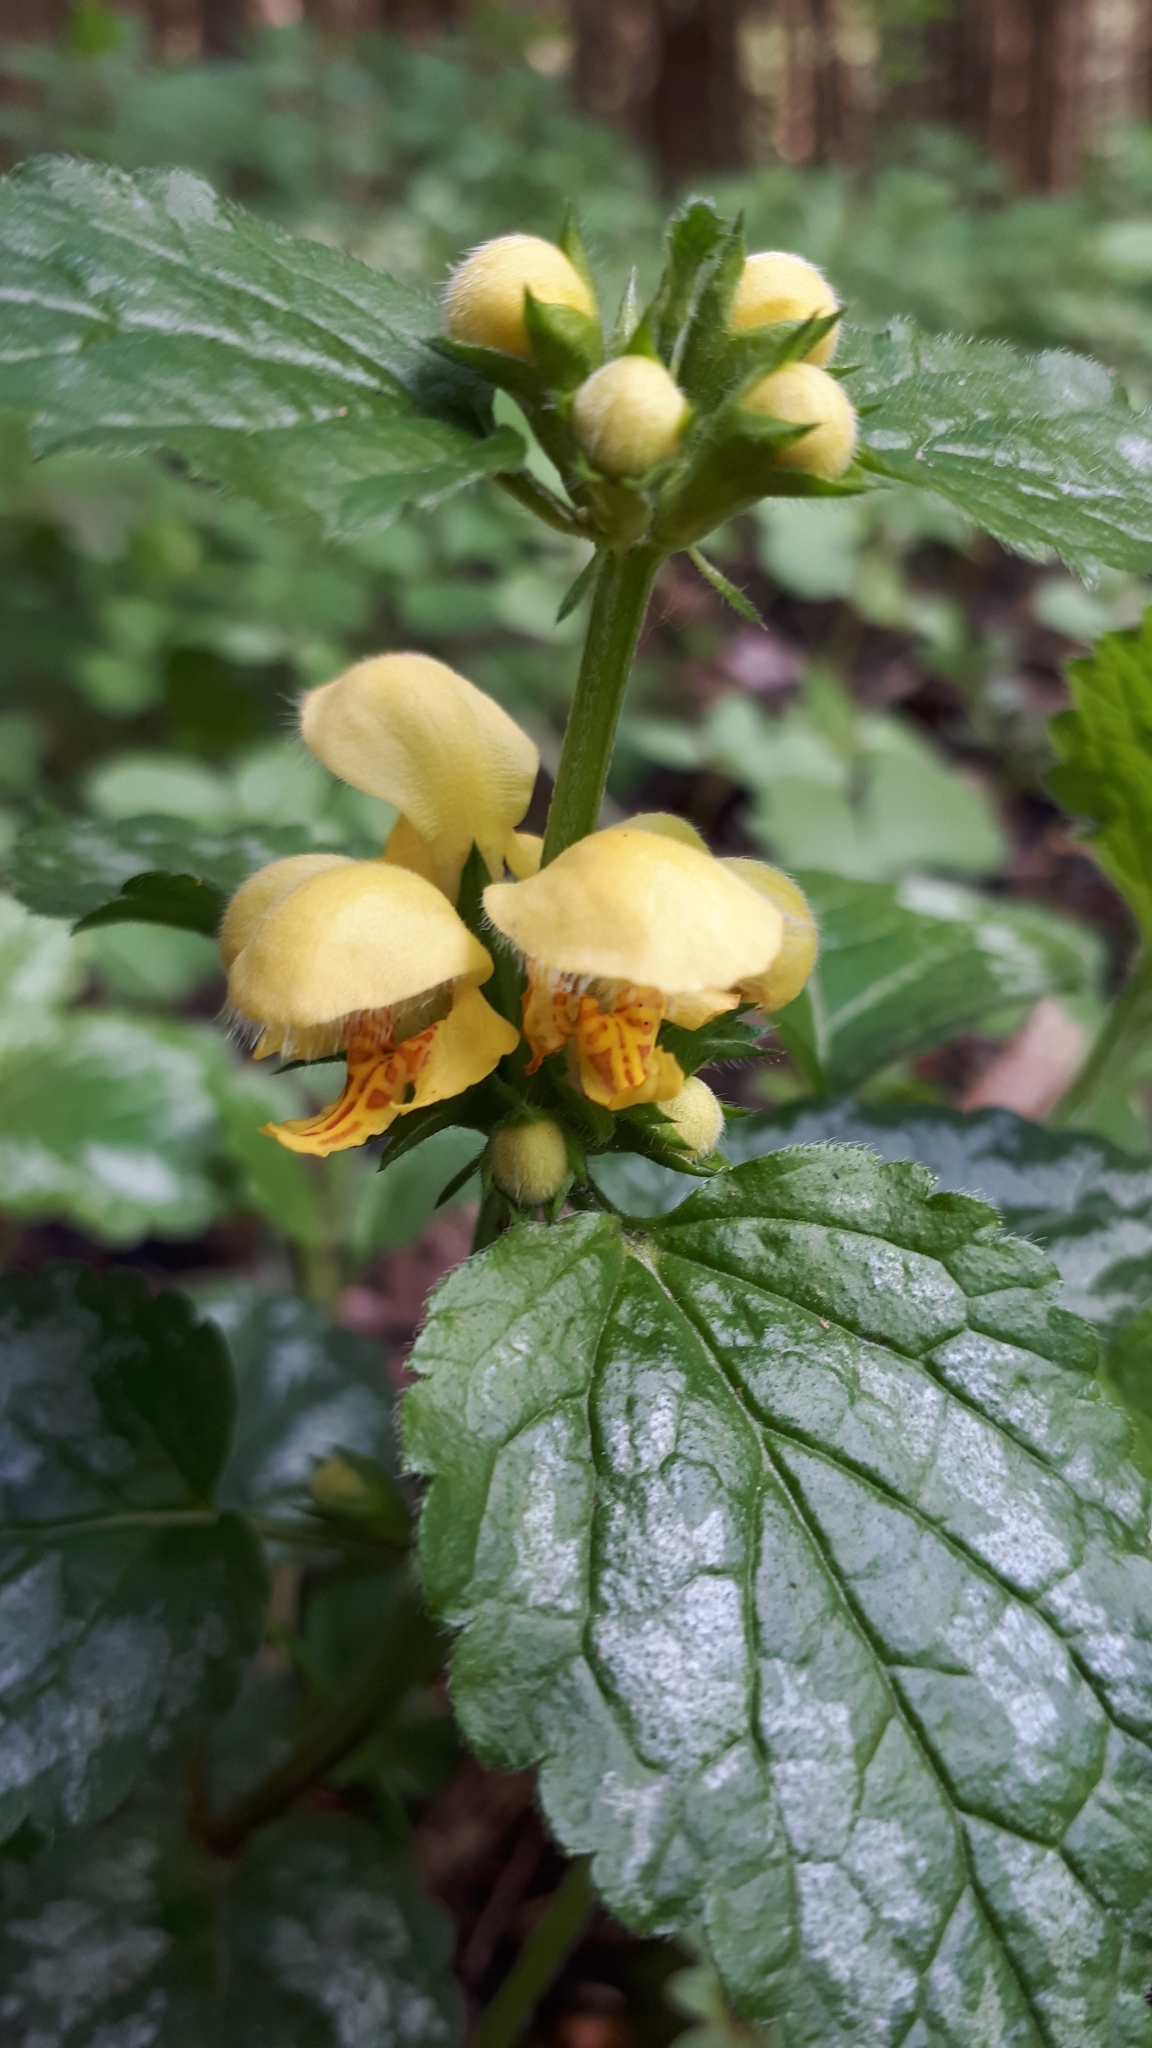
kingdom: Plantae
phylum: Tracheophyta
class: Magnoliopsida
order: Lamiales
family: Lamiaceae
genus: Lamium
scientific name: Lamium galeobdolon
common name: Yellow archangel
